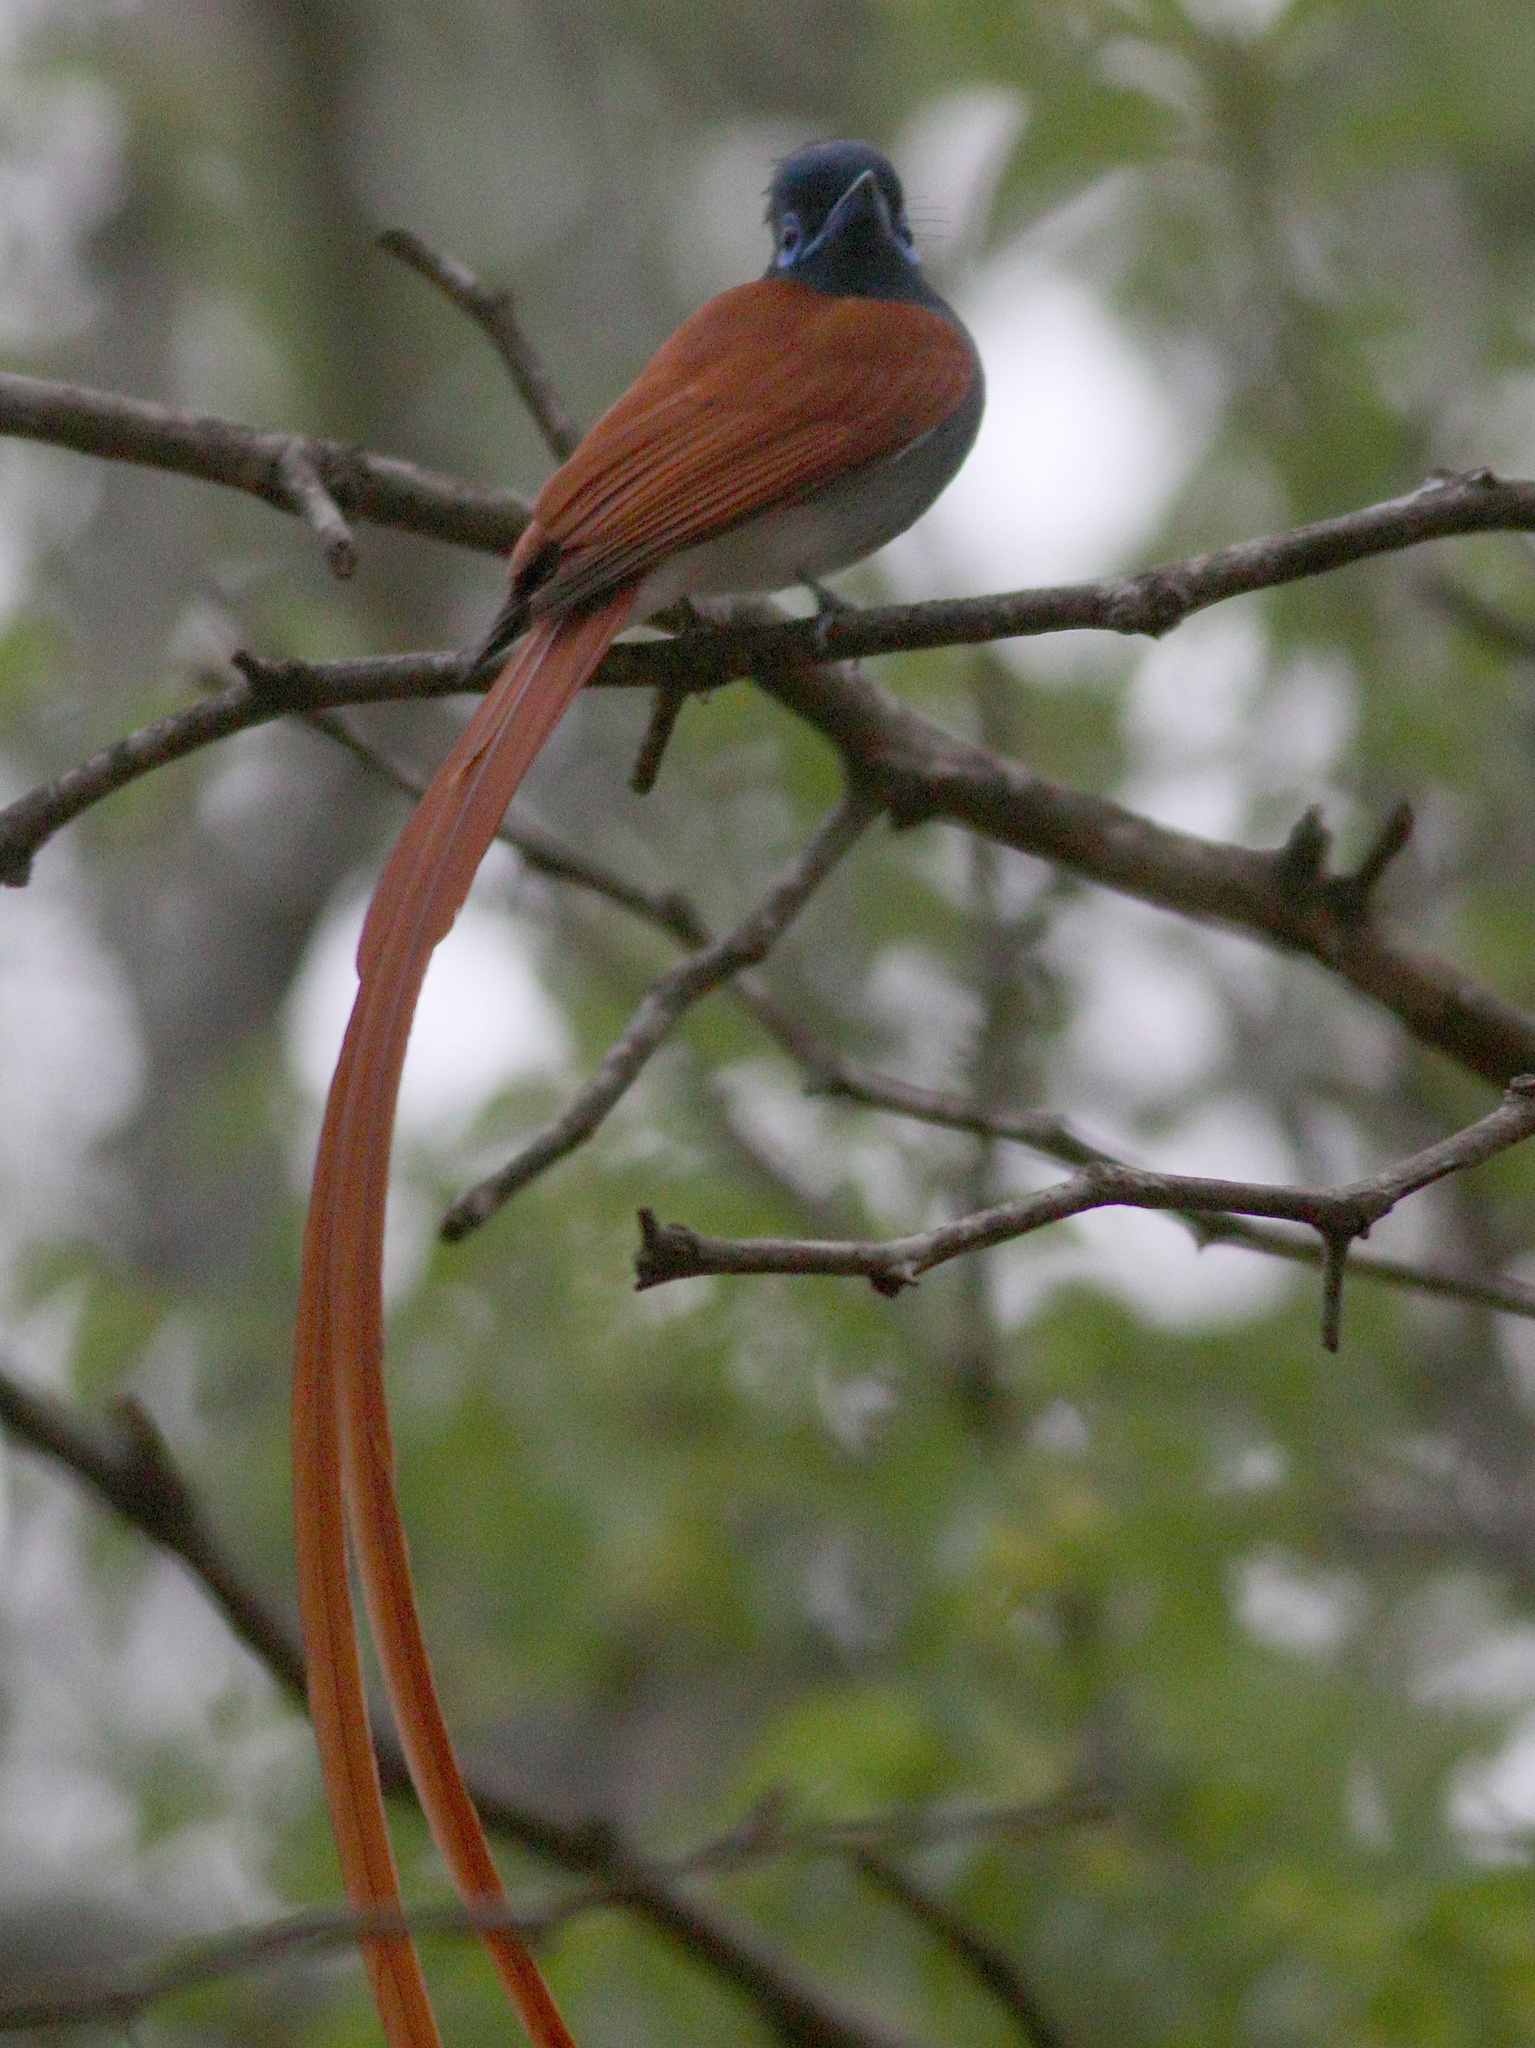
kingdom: Animalia
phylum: Chordata
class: Aves
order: Passeriformes
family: Monarchidae
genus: Terpsiphone
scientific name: Terpsiphone viridis
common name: African paradise flycatcher
